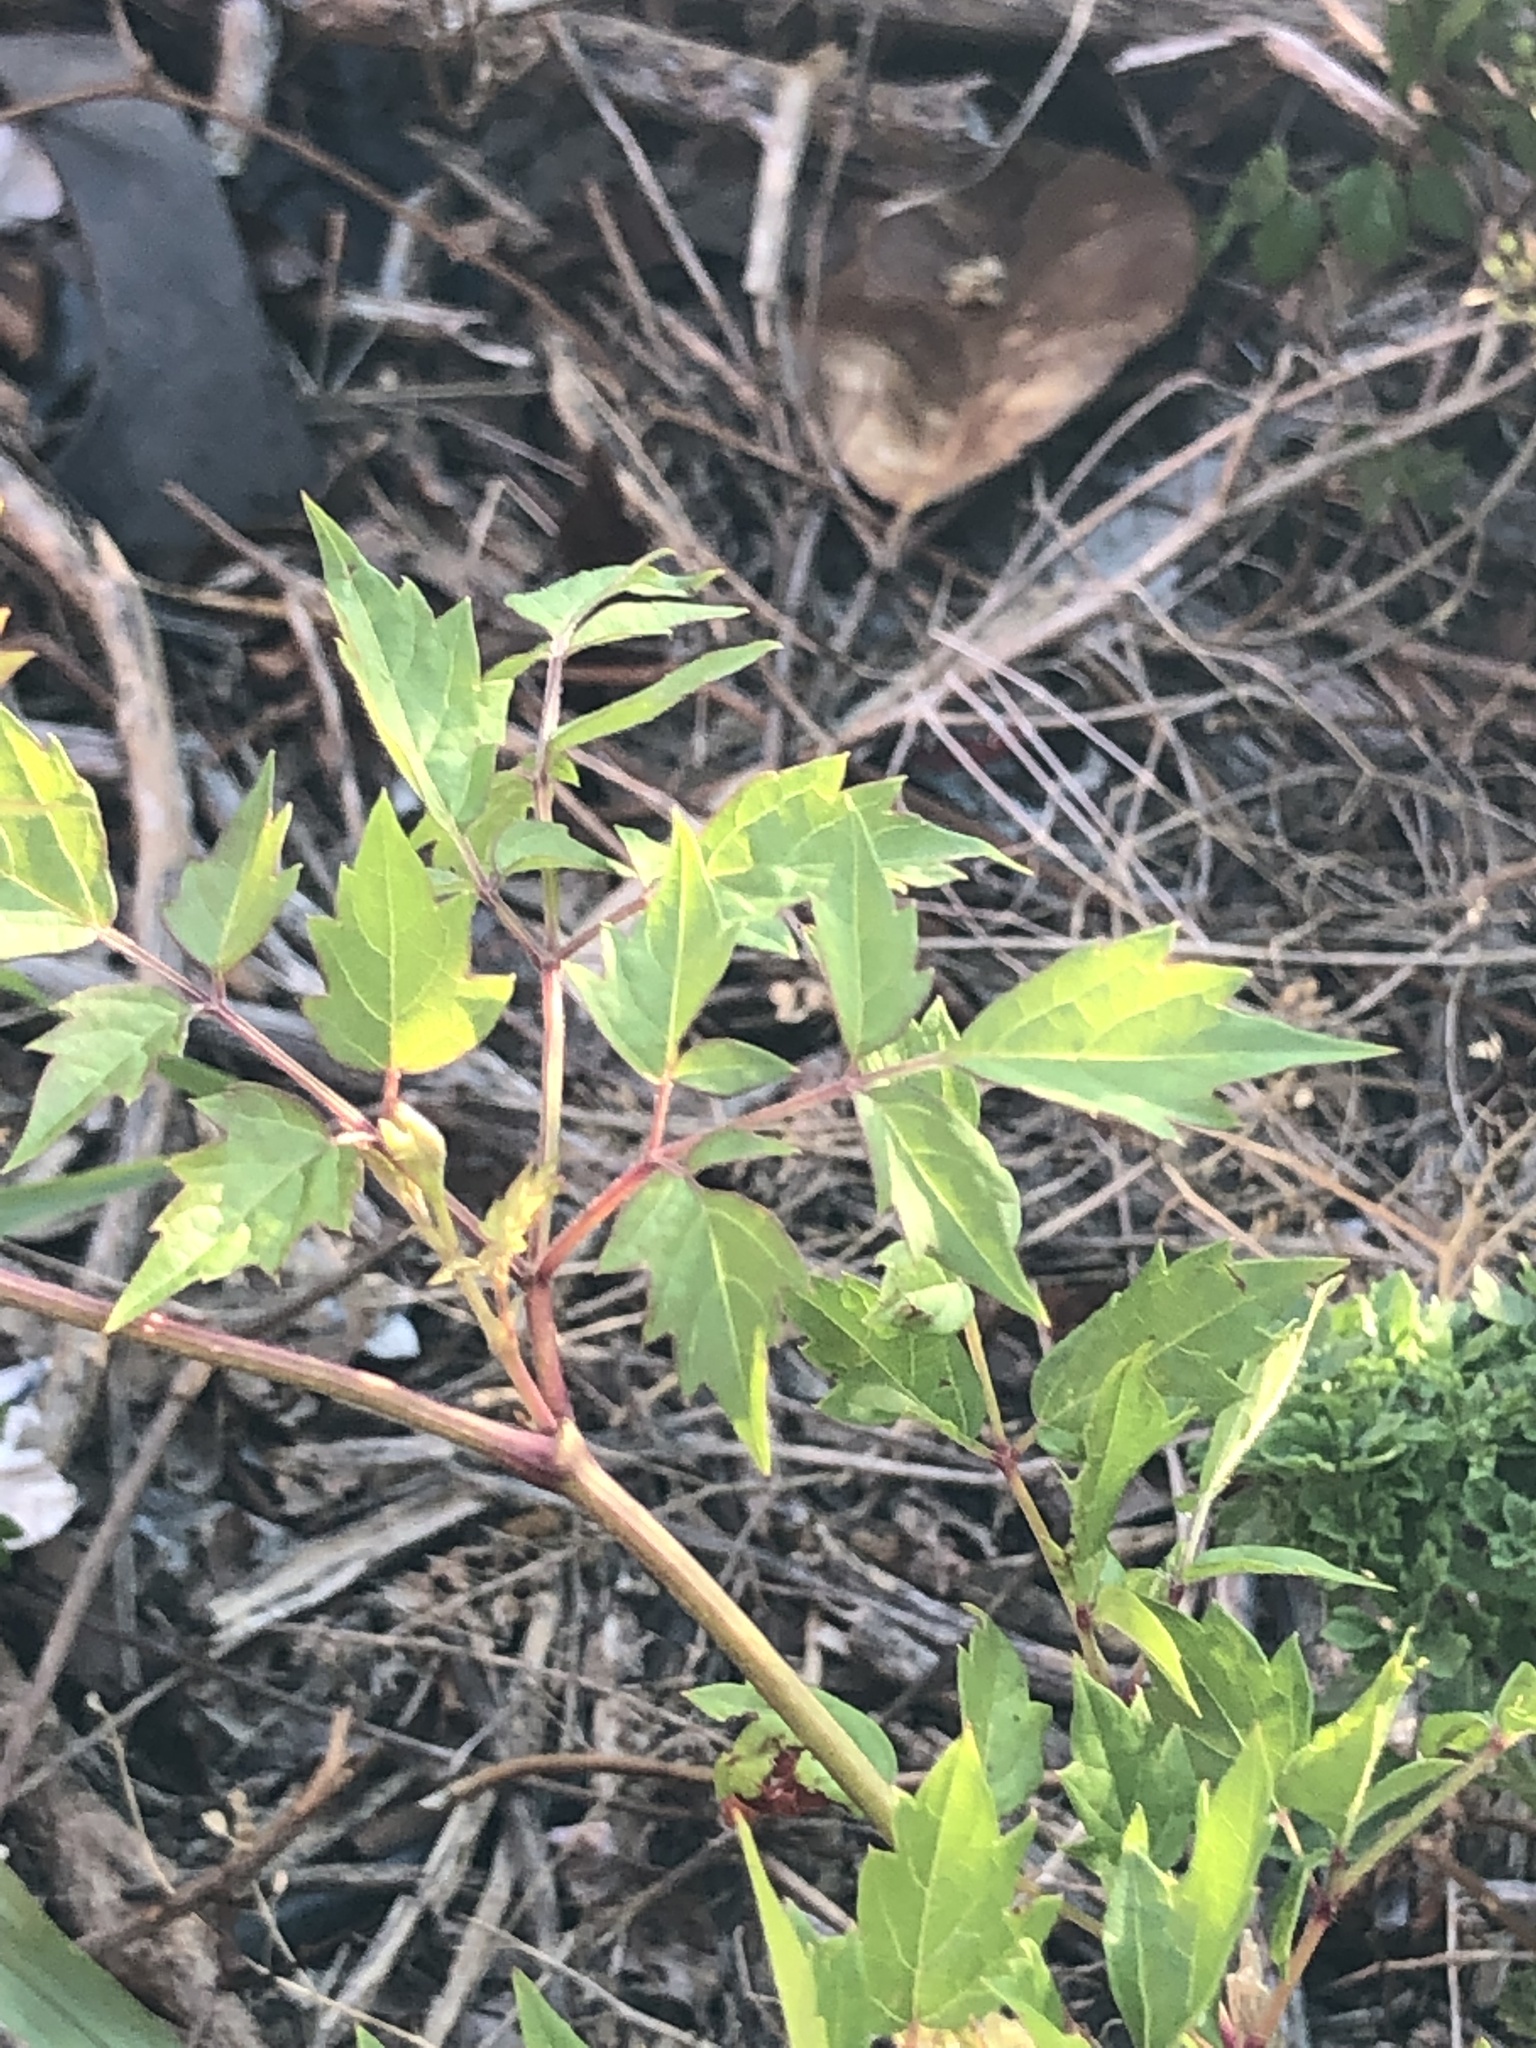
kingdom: Plantae
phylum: Tracheophyta
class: Magnoliopsida
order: Vitales
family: Vitaceae
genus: Nekemias
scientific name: Nekemias arborea
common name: Peppervine
